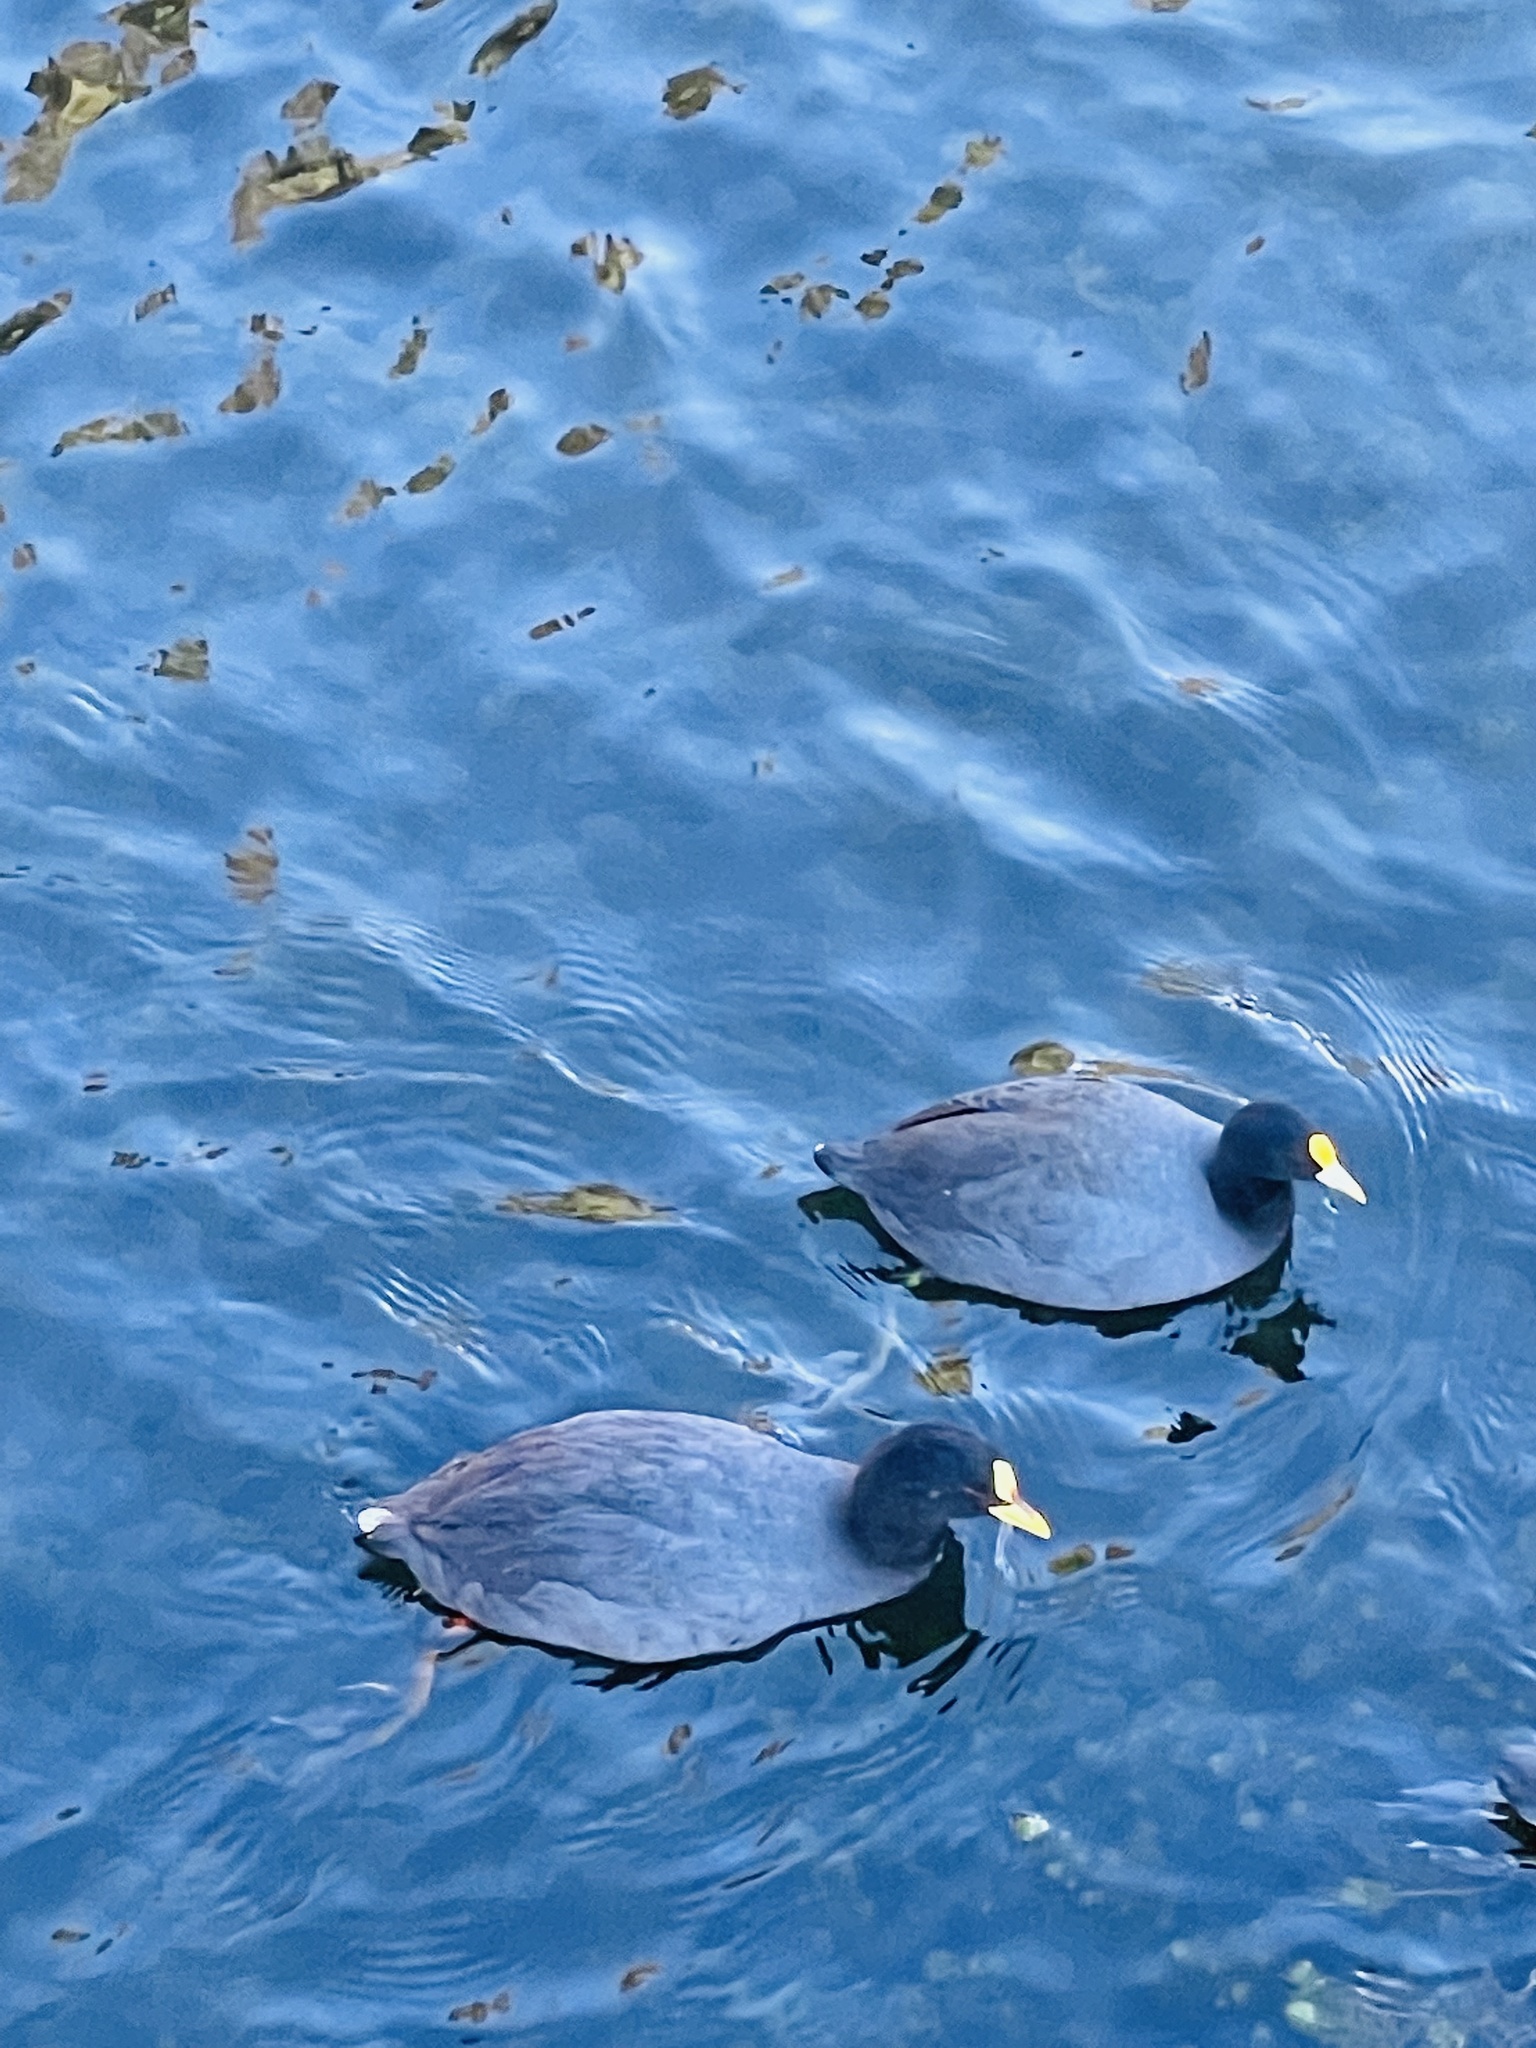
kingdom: Animalia
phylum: Chordata
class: Aves
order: Gruiformes
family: Rallidae
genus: Fulica
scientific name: Fulica leucoptera
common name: White-winged coot
